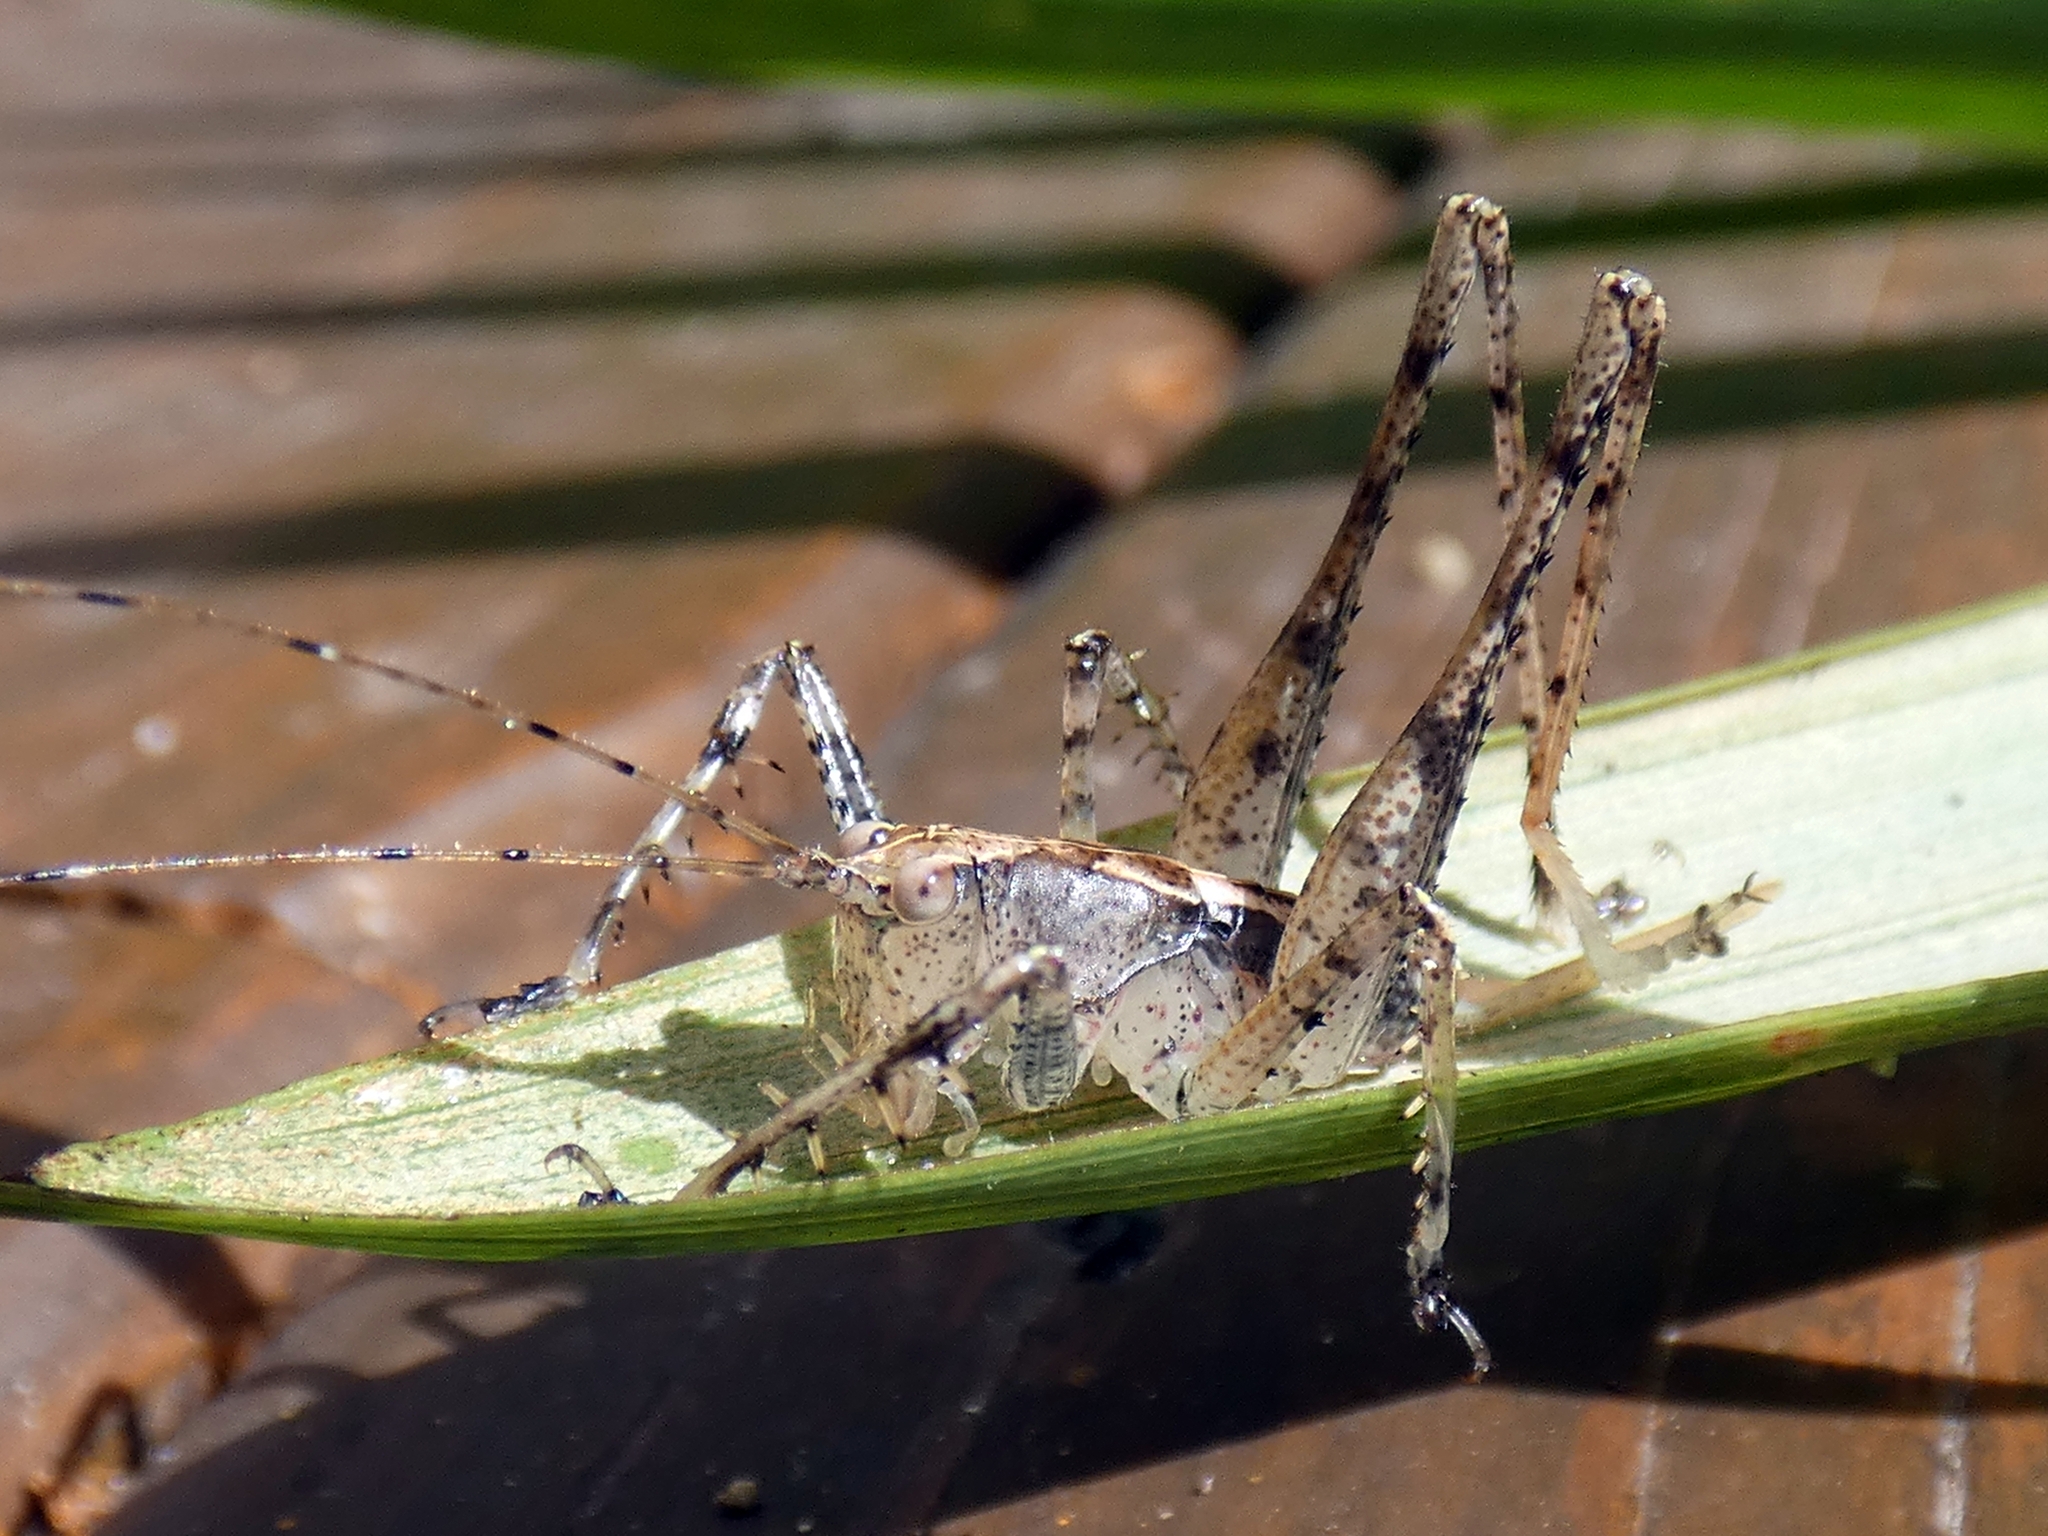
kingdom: Animalia
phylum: Arthropoda
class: Insecta
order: Orthoptera
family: Tettigoniidae
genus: Xingbaoia
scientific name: Xingbaoia karakara
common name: Jin's ginger katydid
